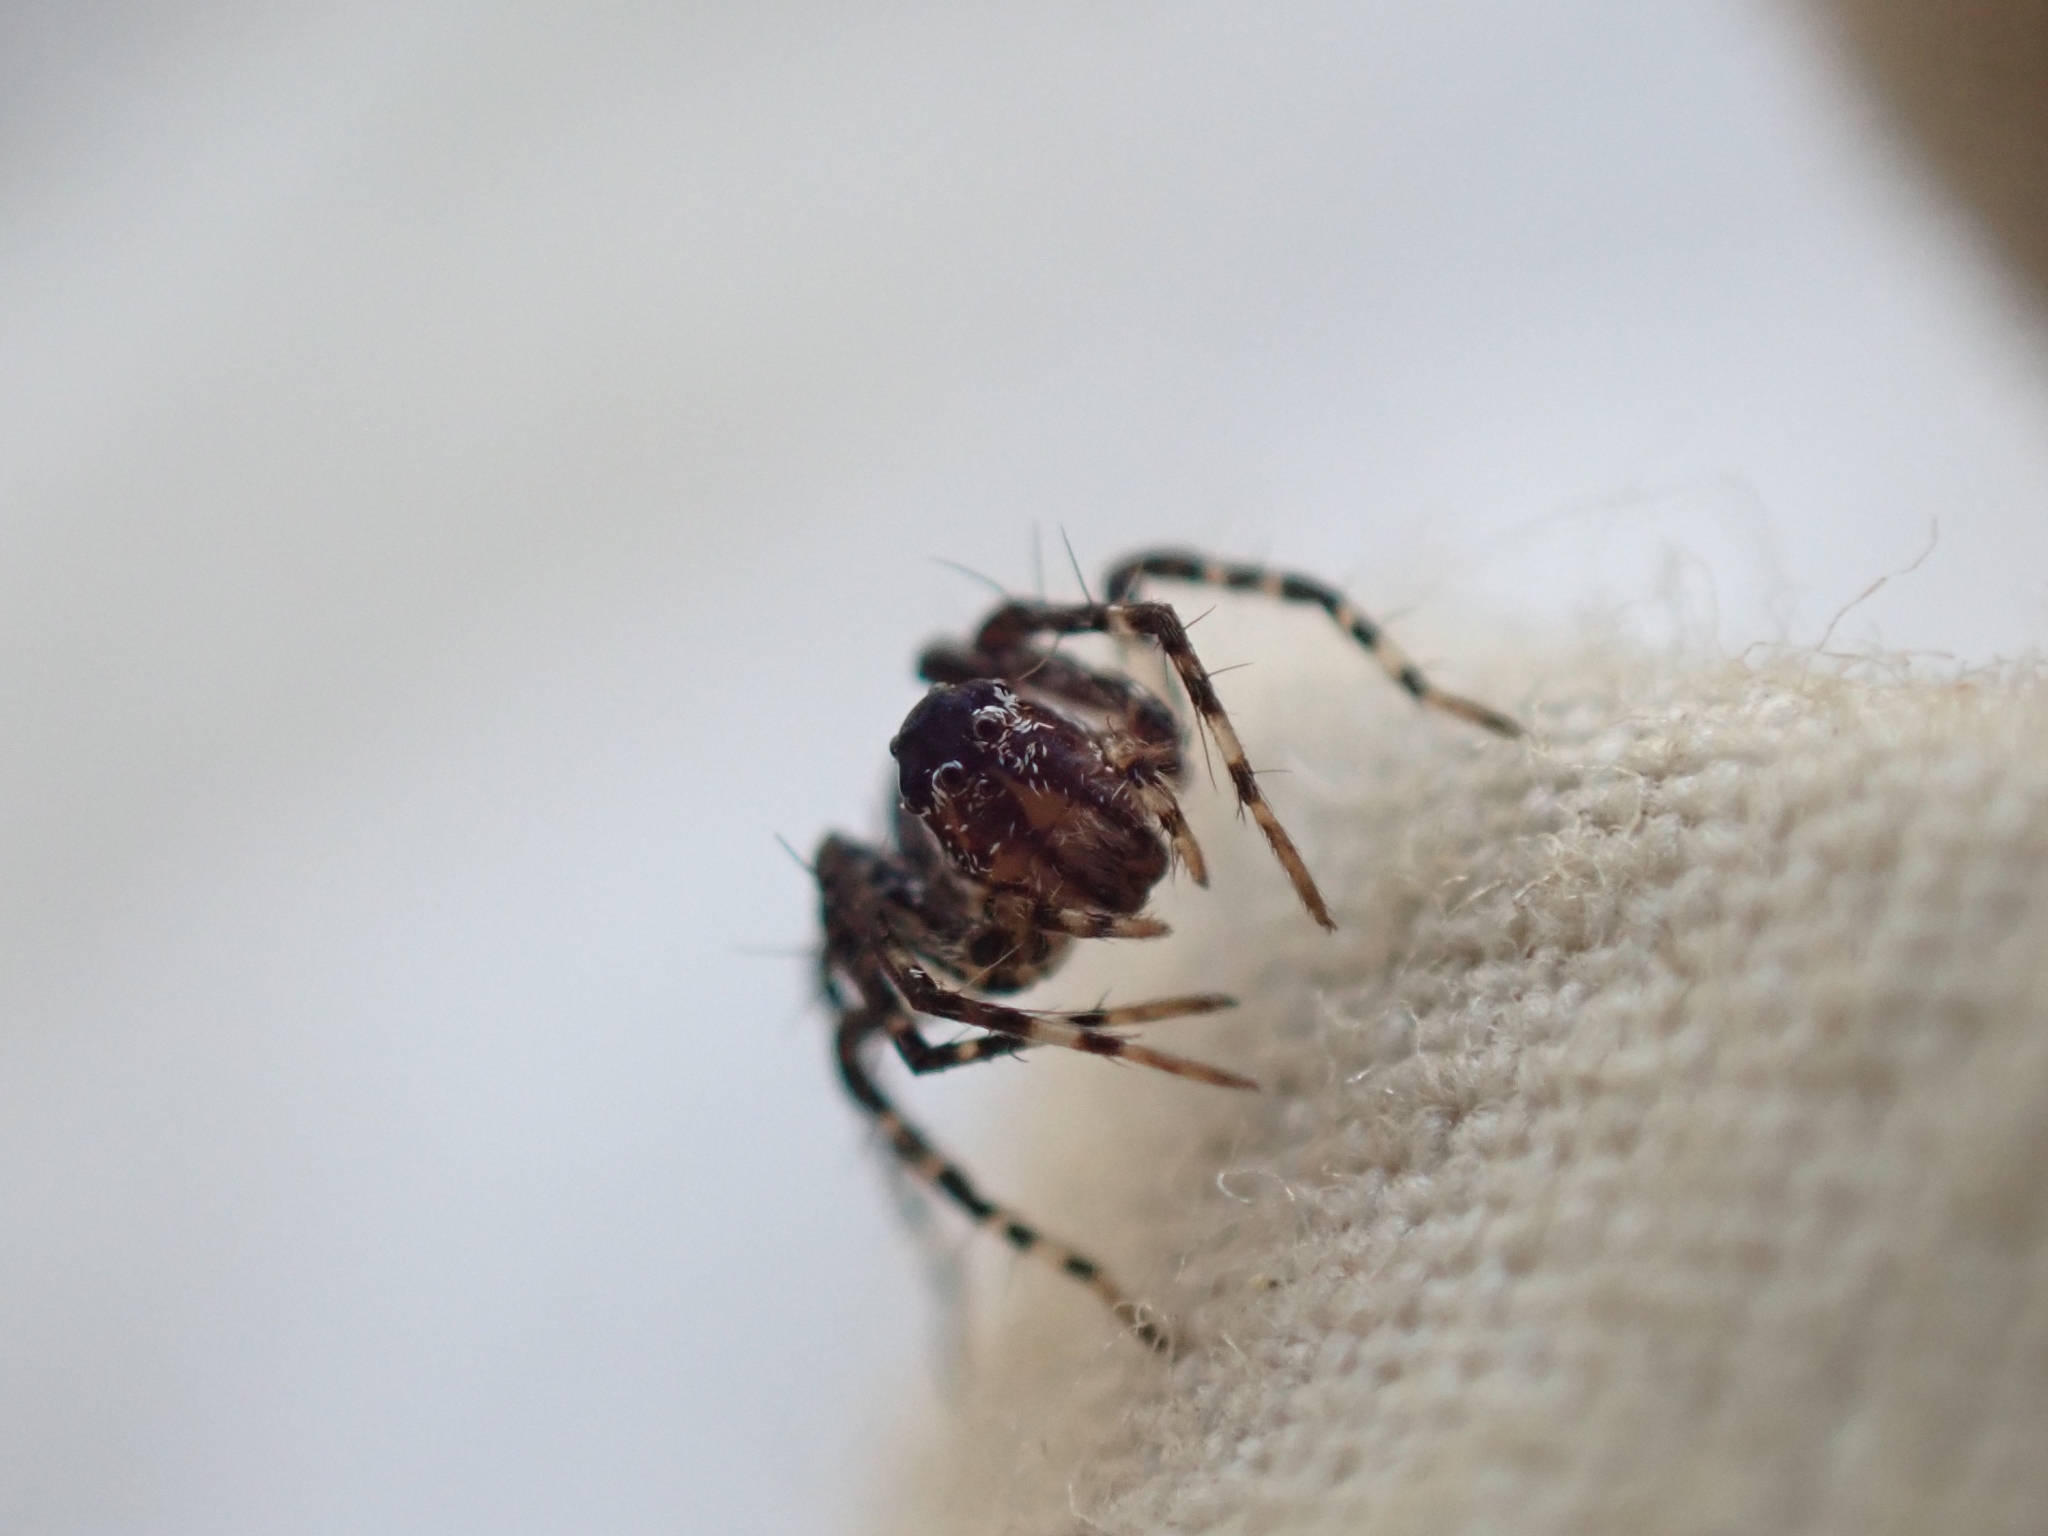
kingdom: Animalia
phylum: Arthropoda
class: Arachnida
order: Araneae
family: Oxyopidae
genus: Oxyopes
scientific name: Oxyopes scalaris
